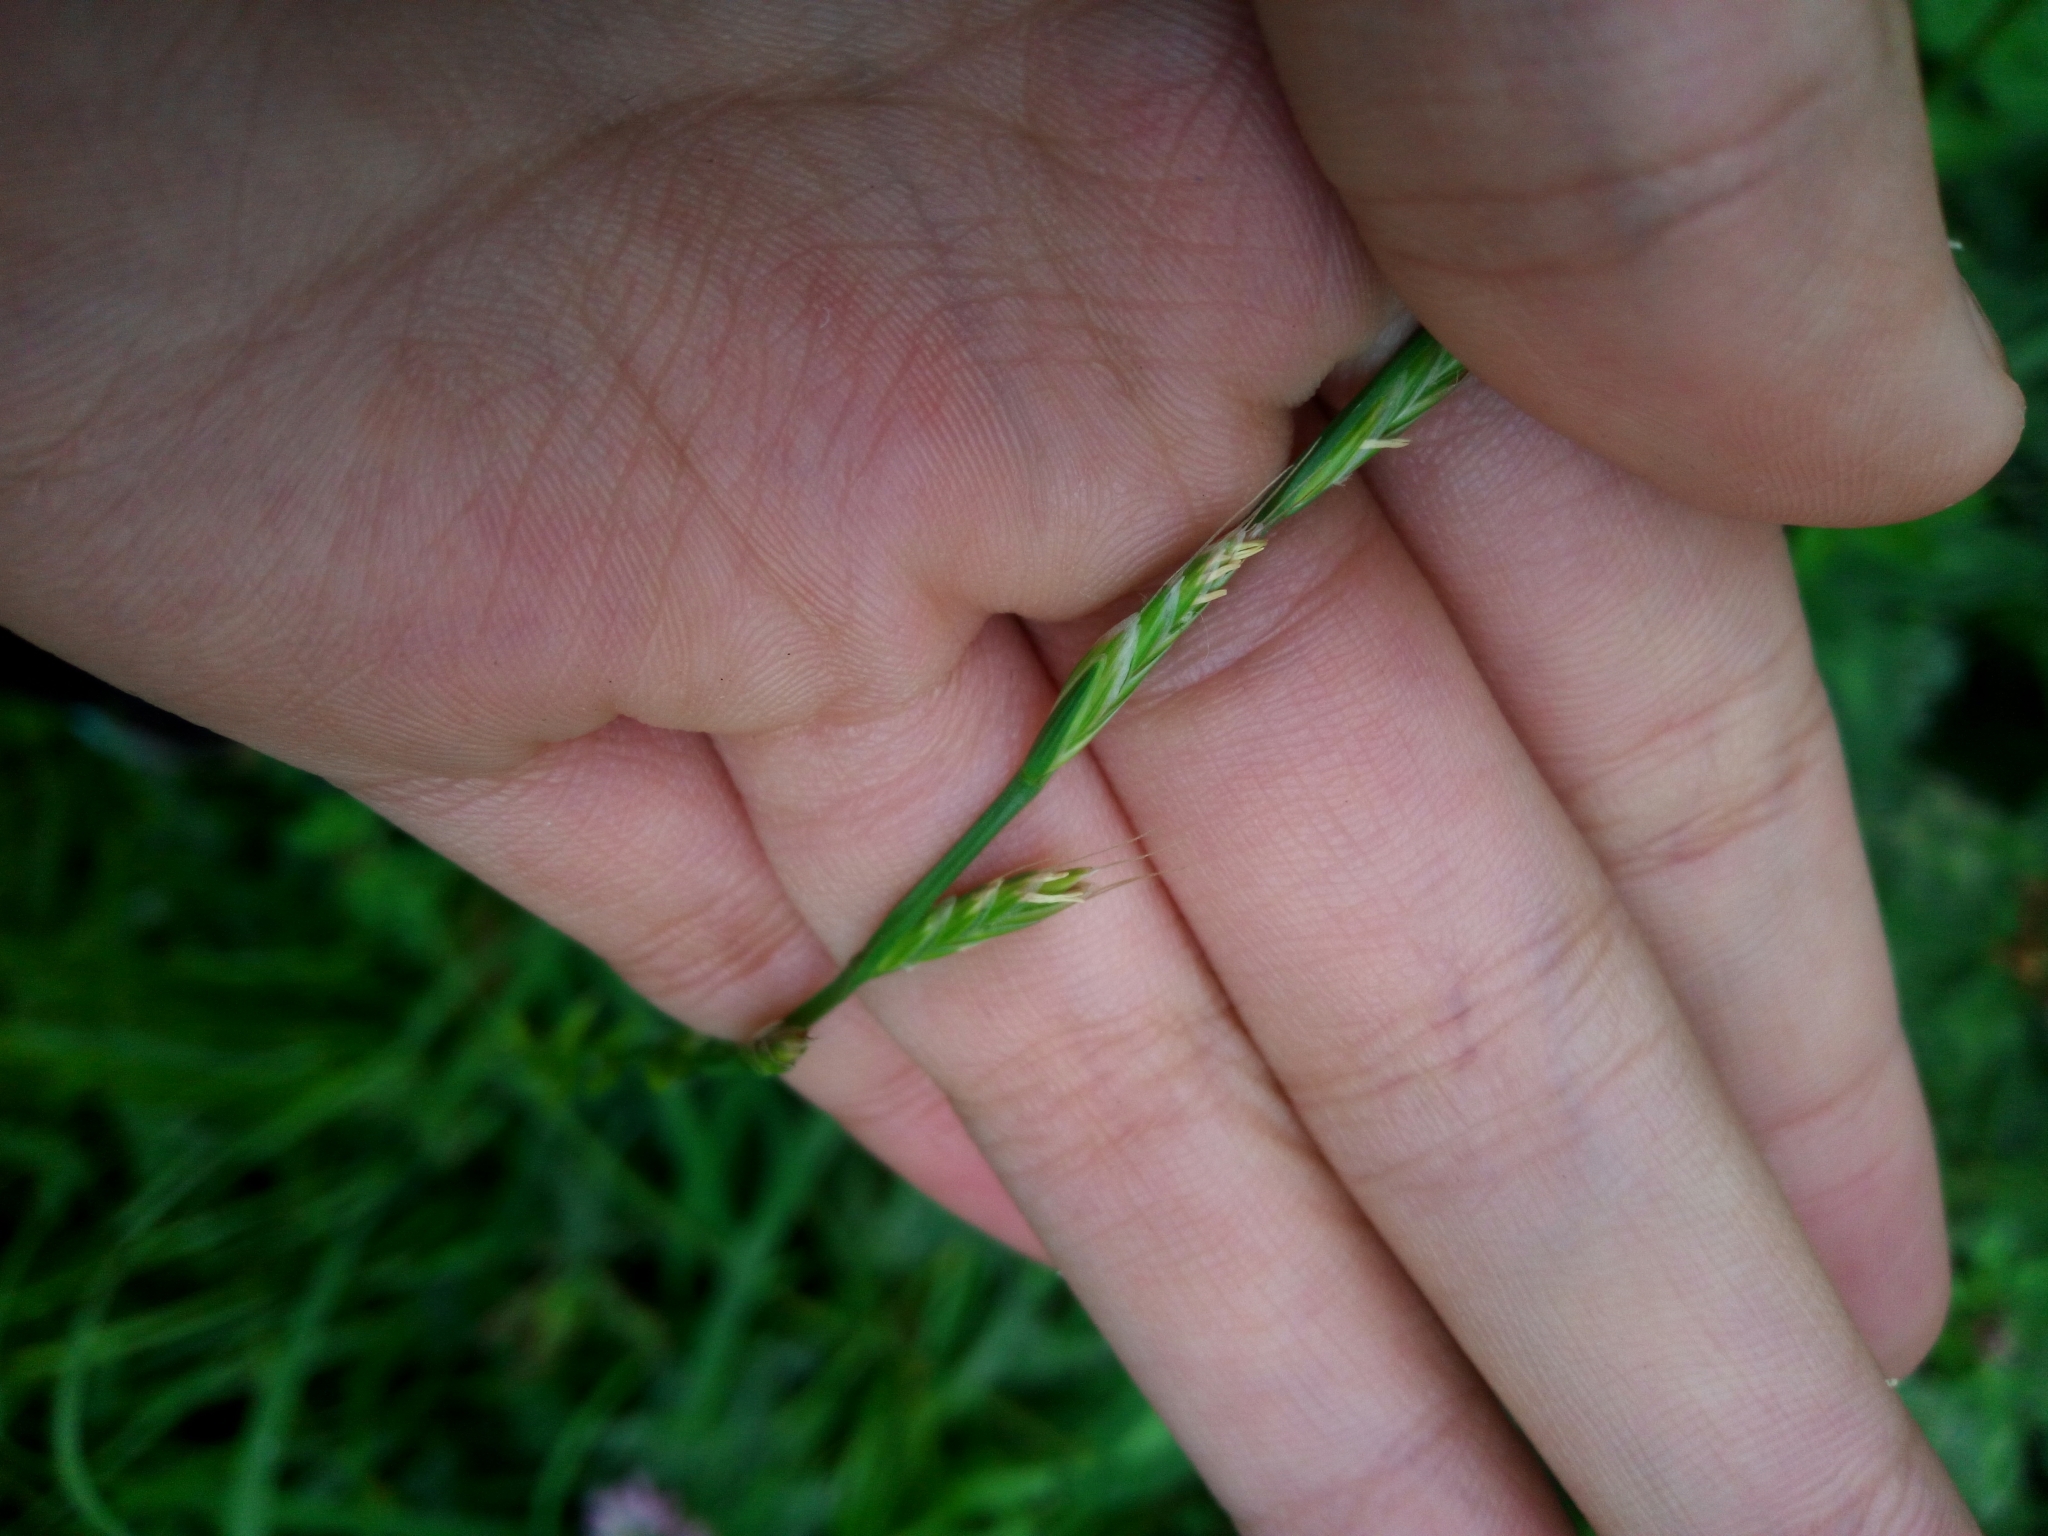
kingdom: Plantae
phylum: Tracheophyta
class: Liliopsida
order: Poales
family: Poaceae
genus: Lolium
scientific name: Lolium perenne
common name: Perennial ryegrass
